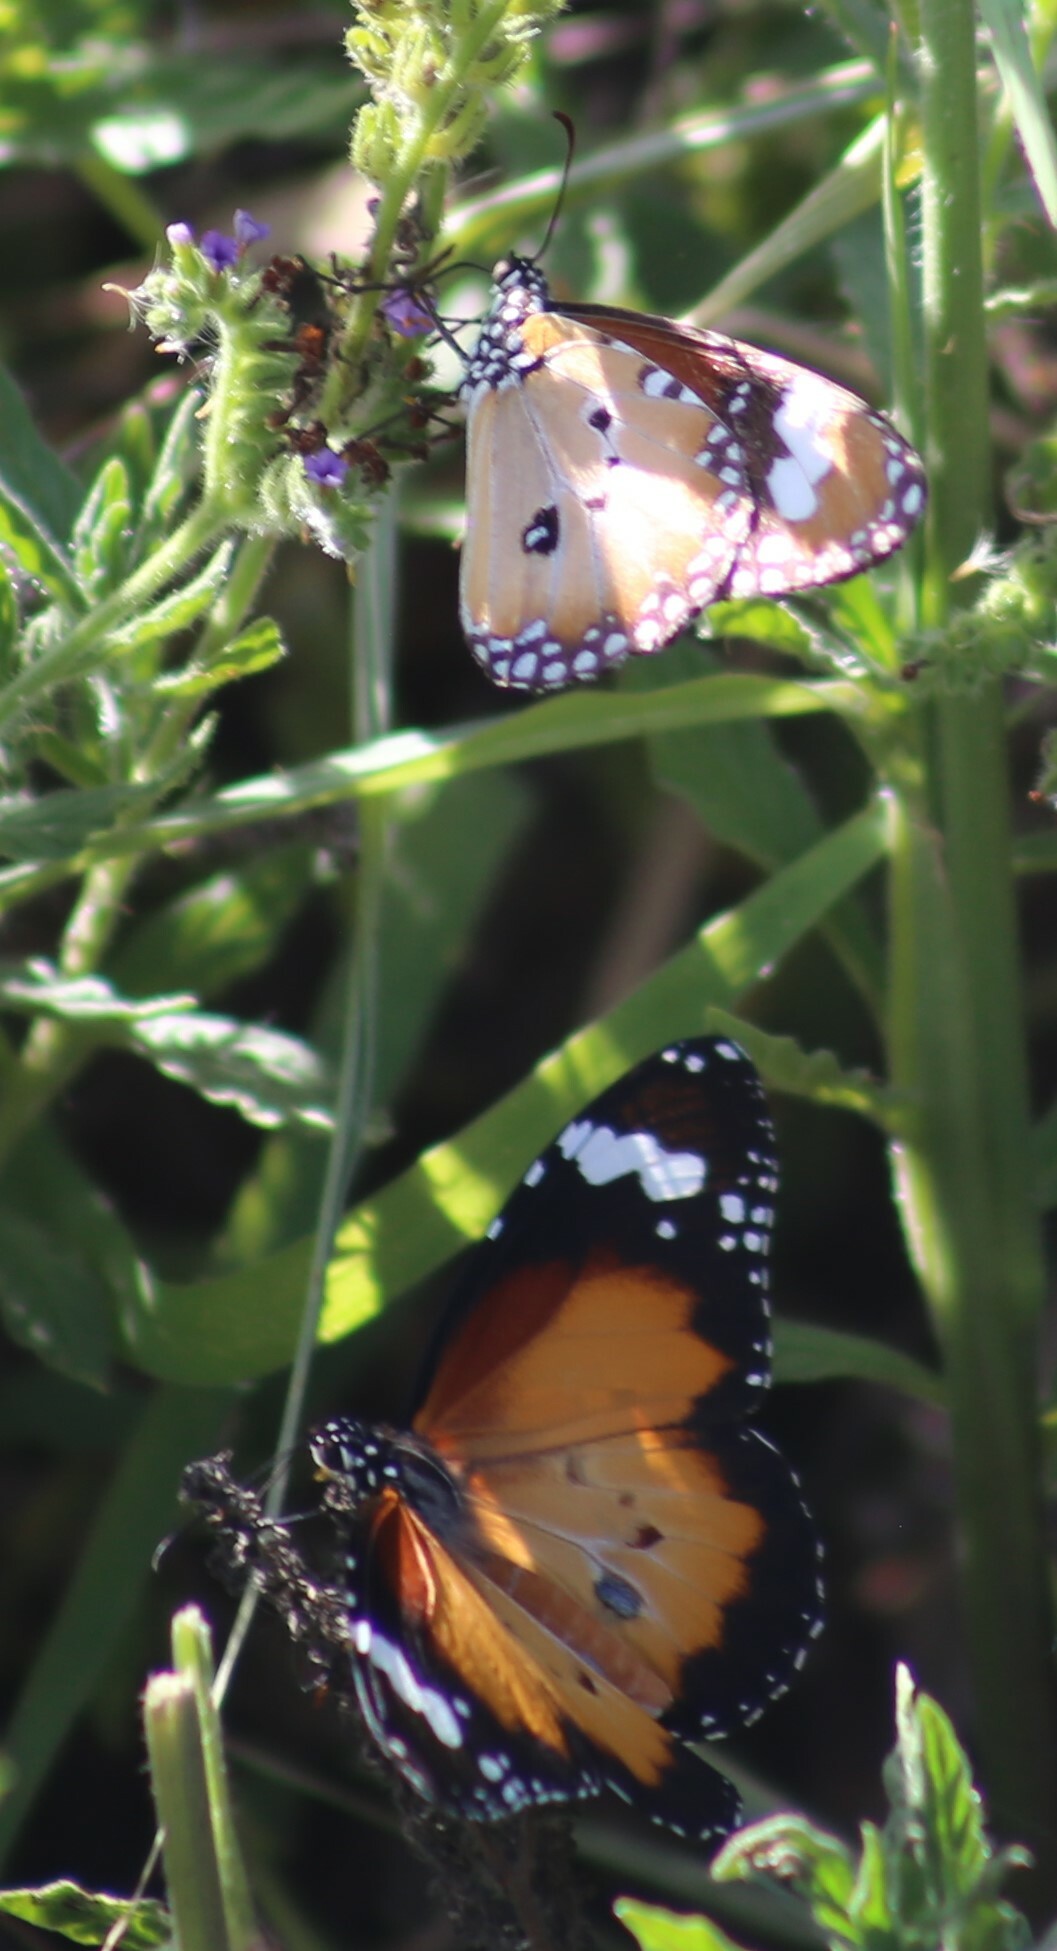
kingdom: Animalia
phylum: Arthropoda
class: Insecta
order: Lepidoptera
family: Nymphalidae
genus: Danaus
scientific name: Danaus chrysippus
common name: Plain tiger
